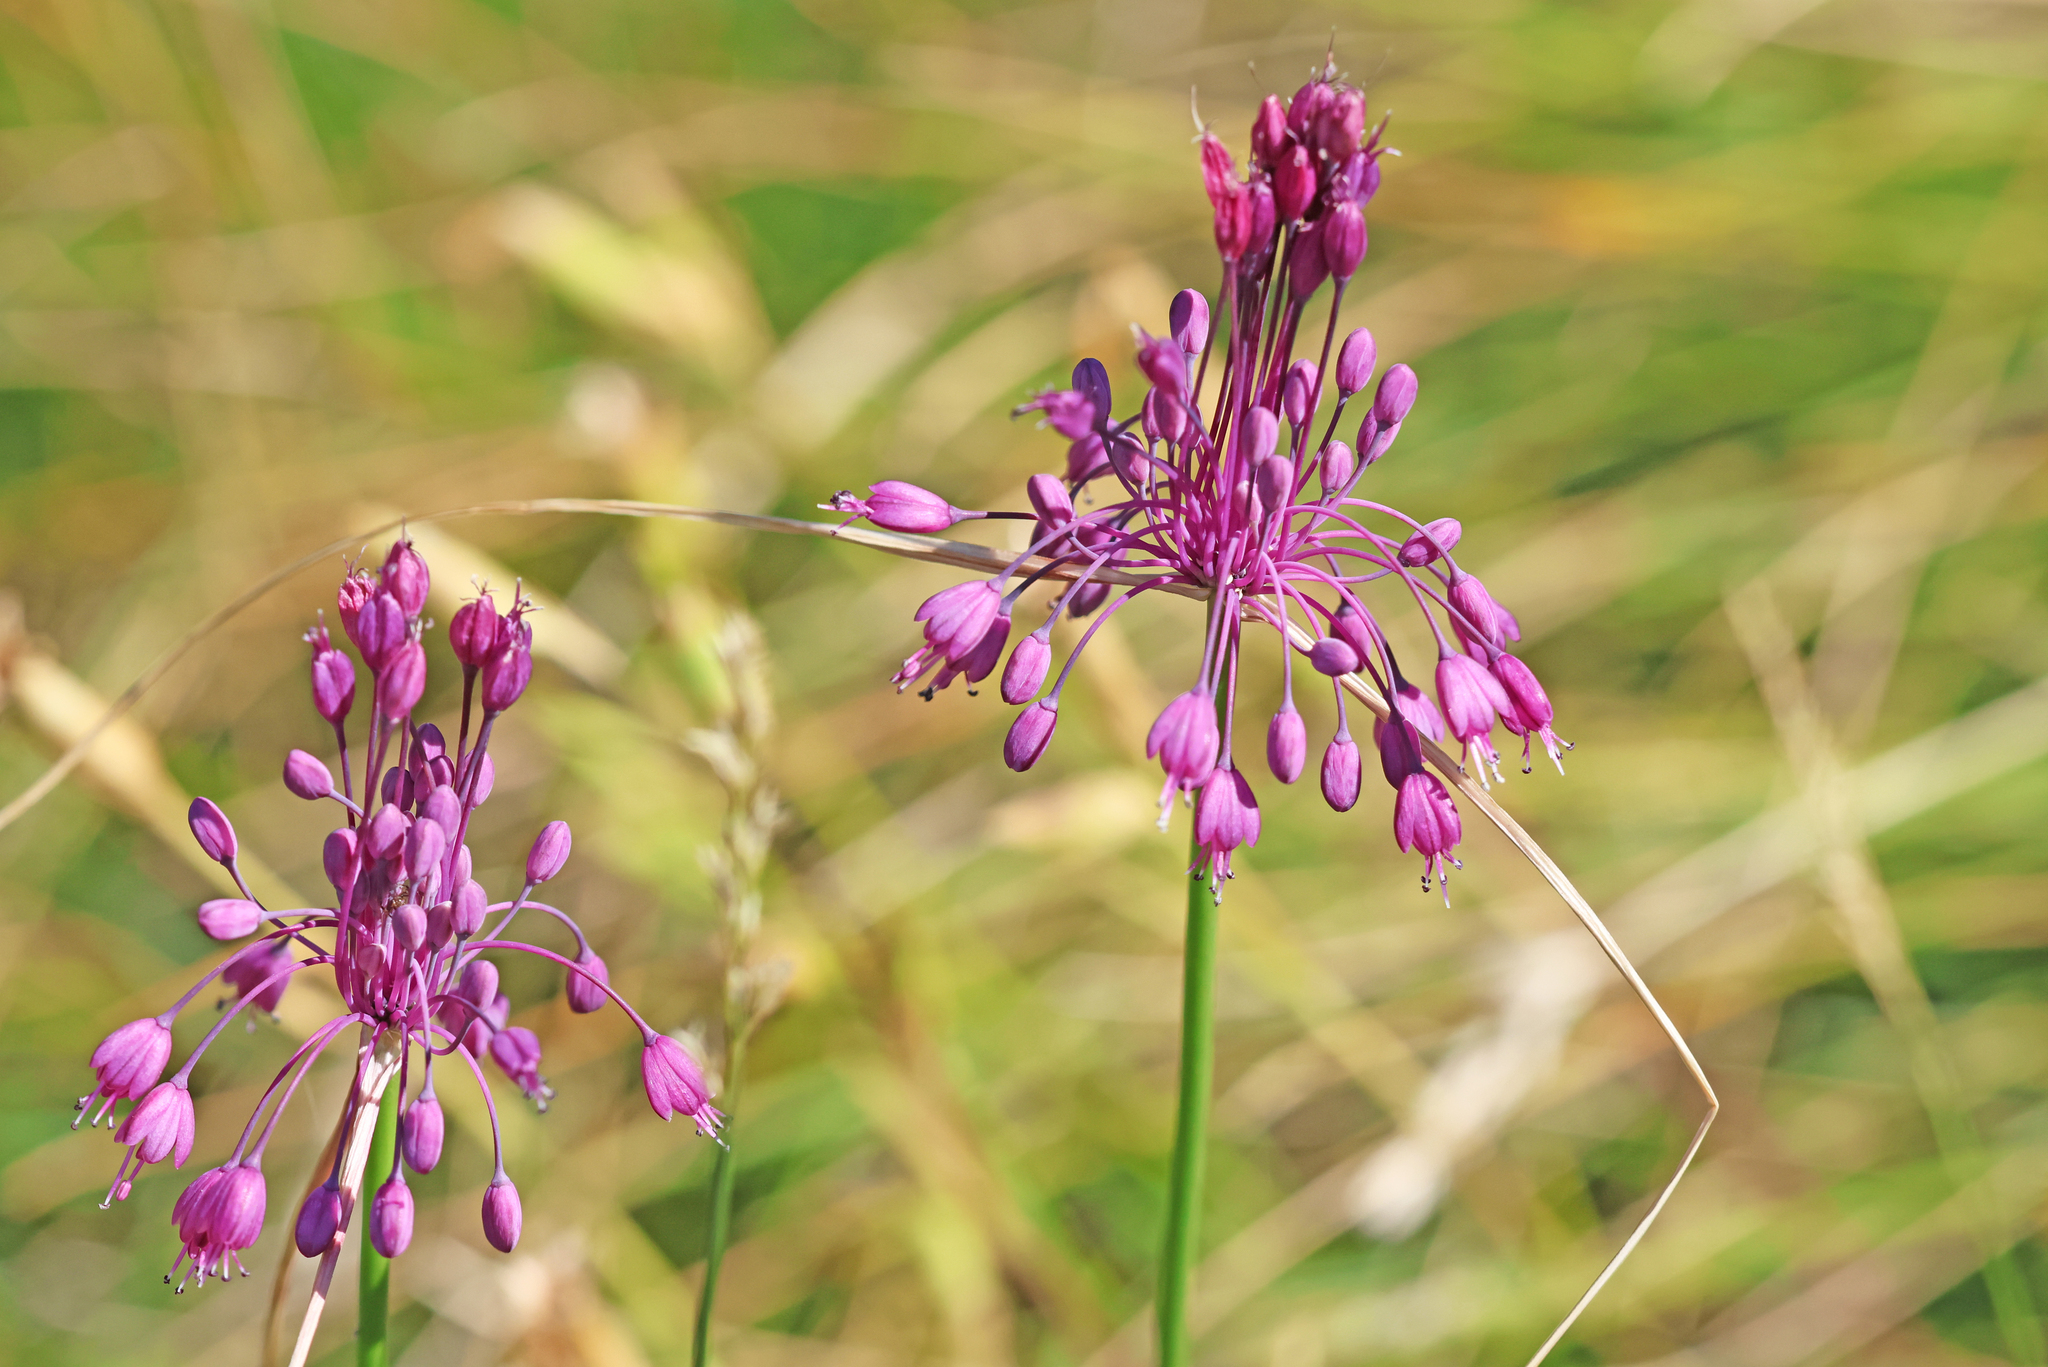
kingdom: Plantae
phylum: Tracheophyta
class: Liliopsida
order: Asparagales
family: Amaryllidaceae
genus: Allium
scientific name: Allium coloratum
